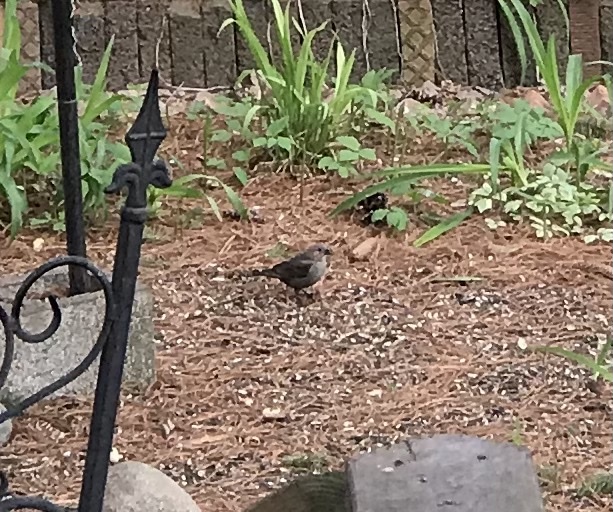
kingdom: Animalia
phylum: Chordata
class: Aves
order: Passeriformes
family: Icteridae
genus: Molothrus
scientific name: Molothrus ater
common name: Brown-headed cowbird
